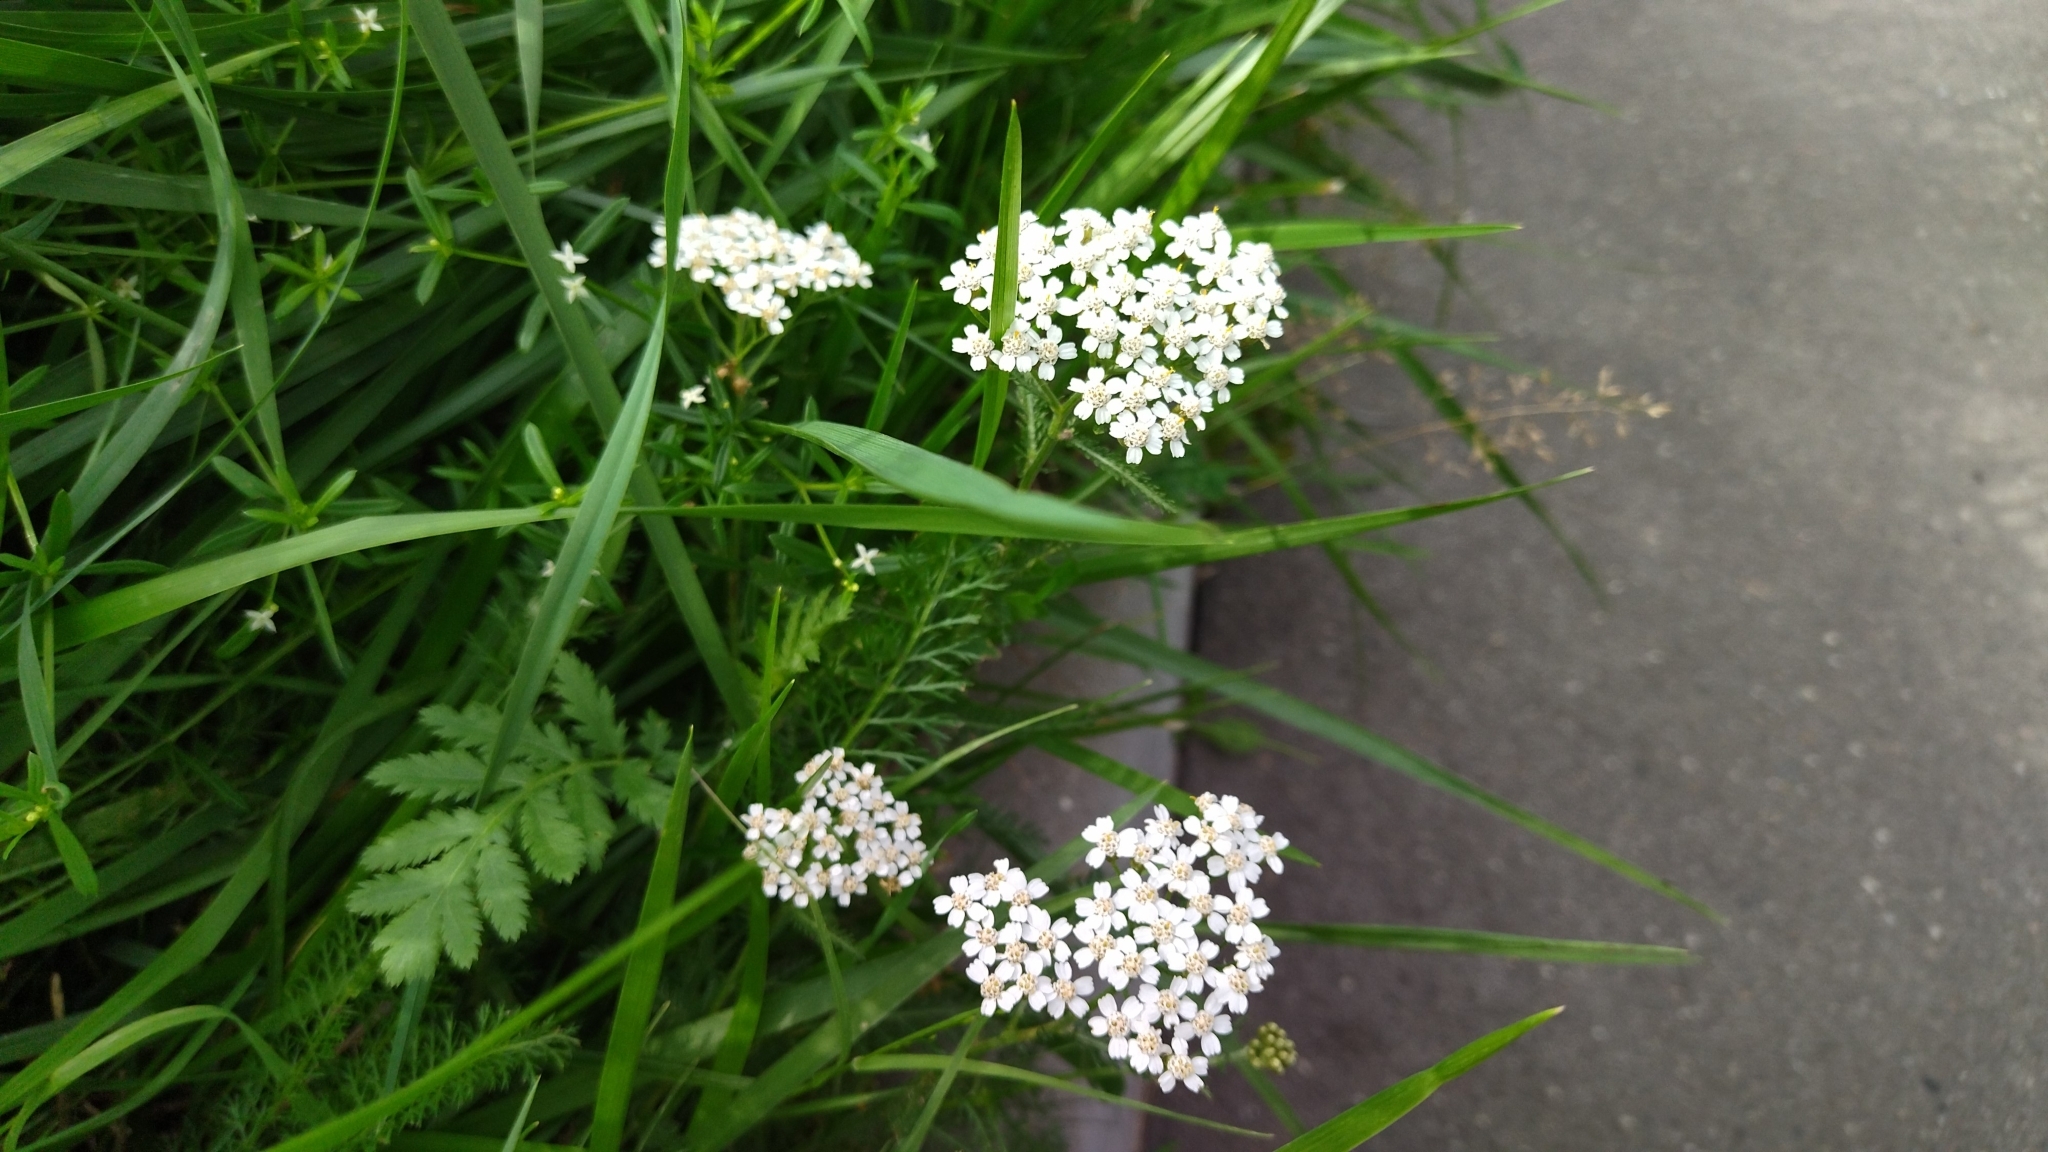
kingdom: Plantae
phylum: Tracheophyta
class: Magnoliopsida
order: Asterales
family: Asteraceae
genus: Achillea
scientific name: Achillea millefolium
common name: Yarrow
